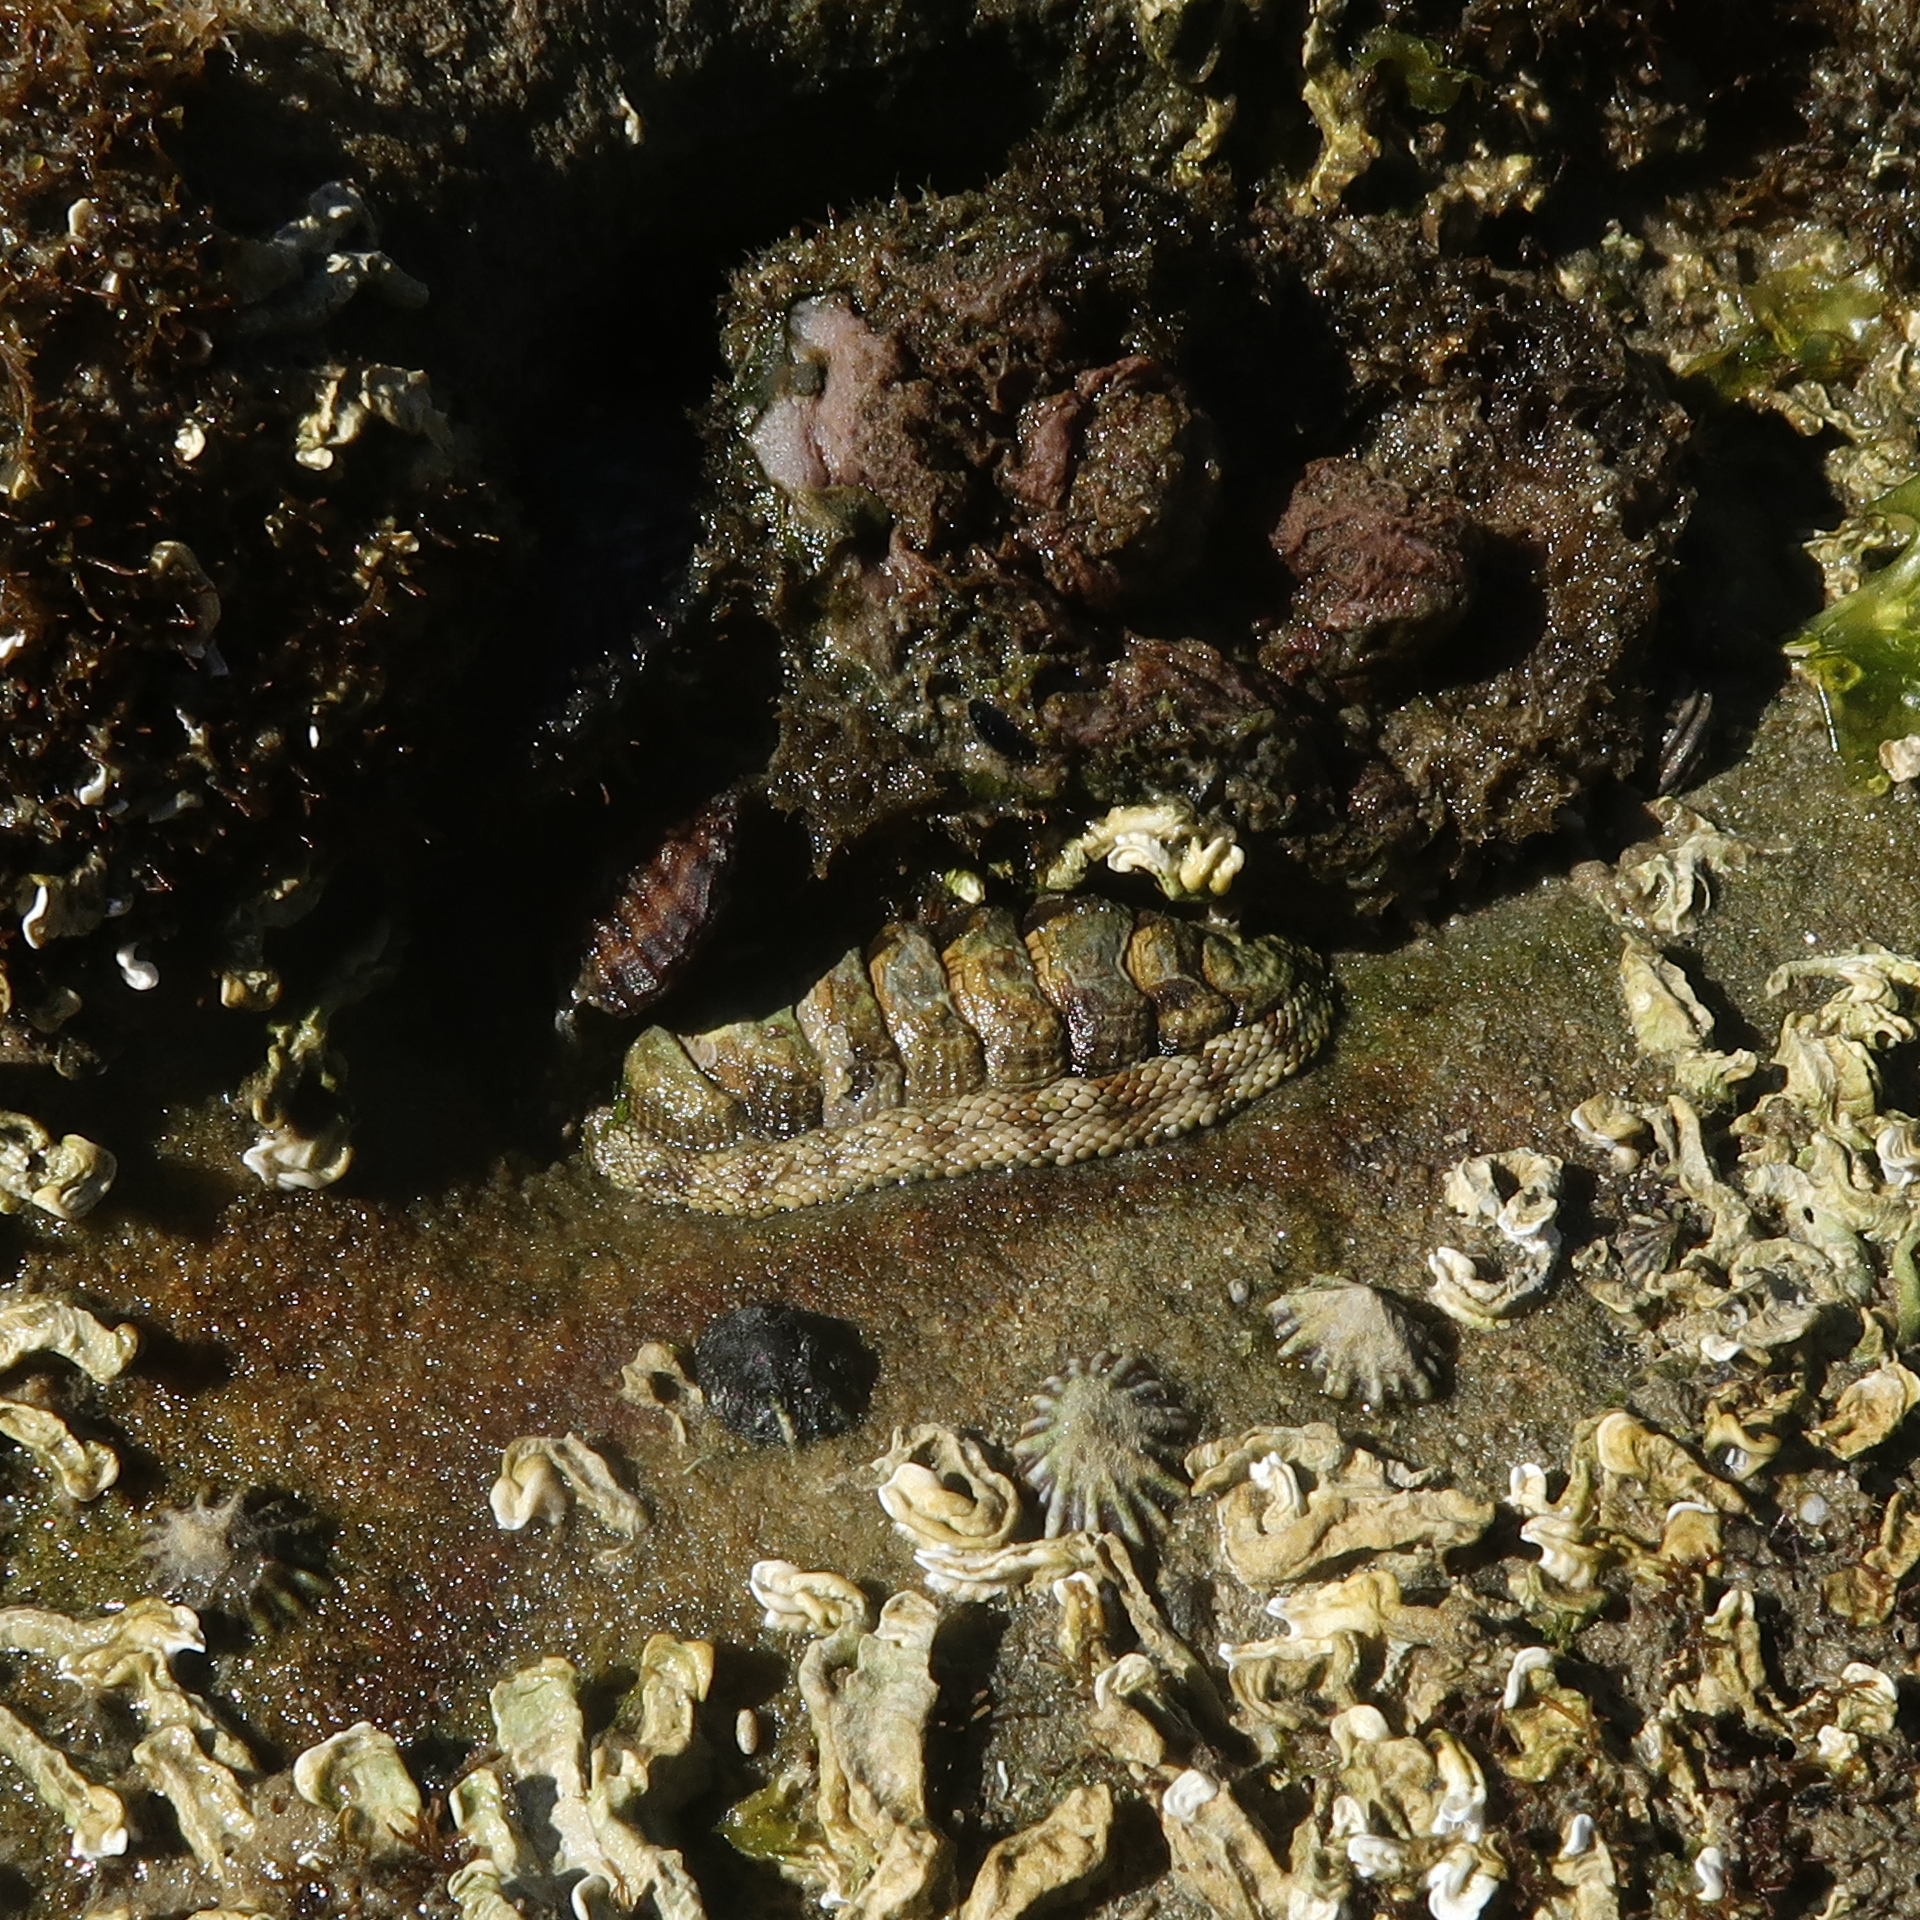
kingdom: Animalia
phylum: Mollusca
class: Polyplacophora
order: Chitonida
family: Chitonidae
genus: Sypharochiton
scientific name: Sypharochiton pelliserpentis
